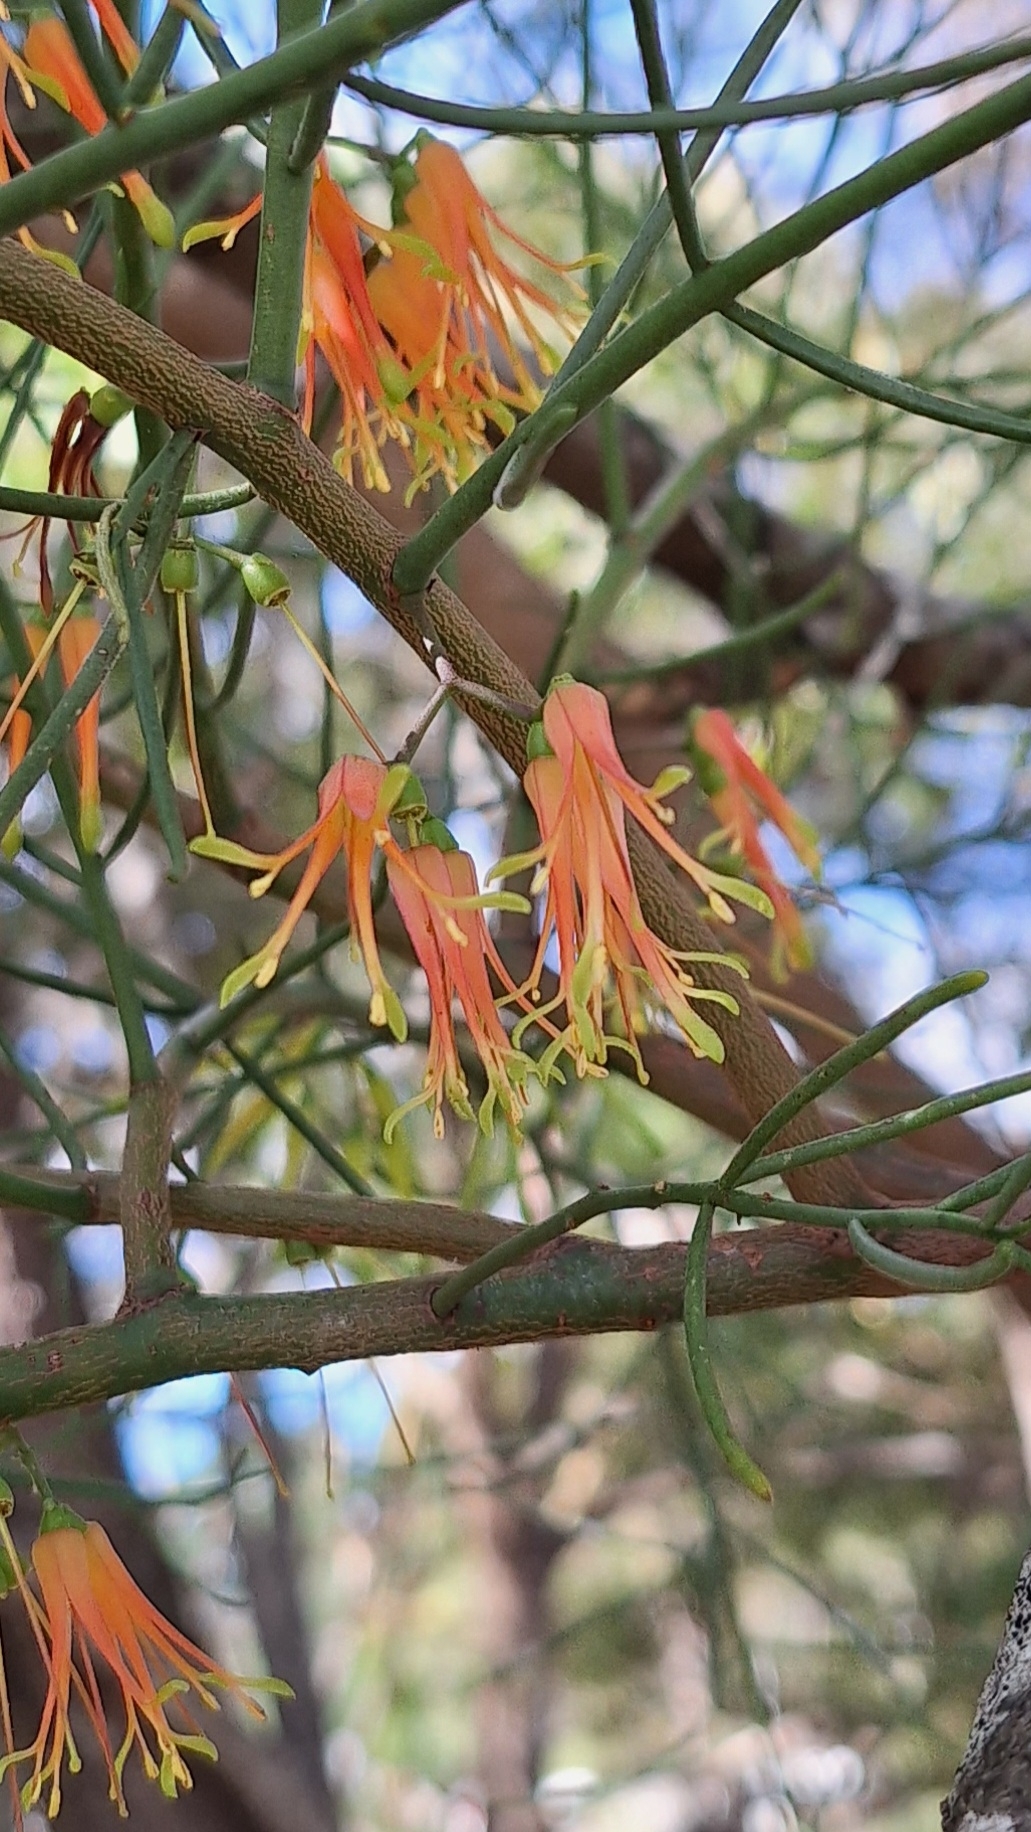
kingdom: Plantae
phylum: Tracheophyta
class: Magnoliopsida
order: Santalales
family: Loranthaceae
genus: Amyema
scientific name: Amyema preissii
